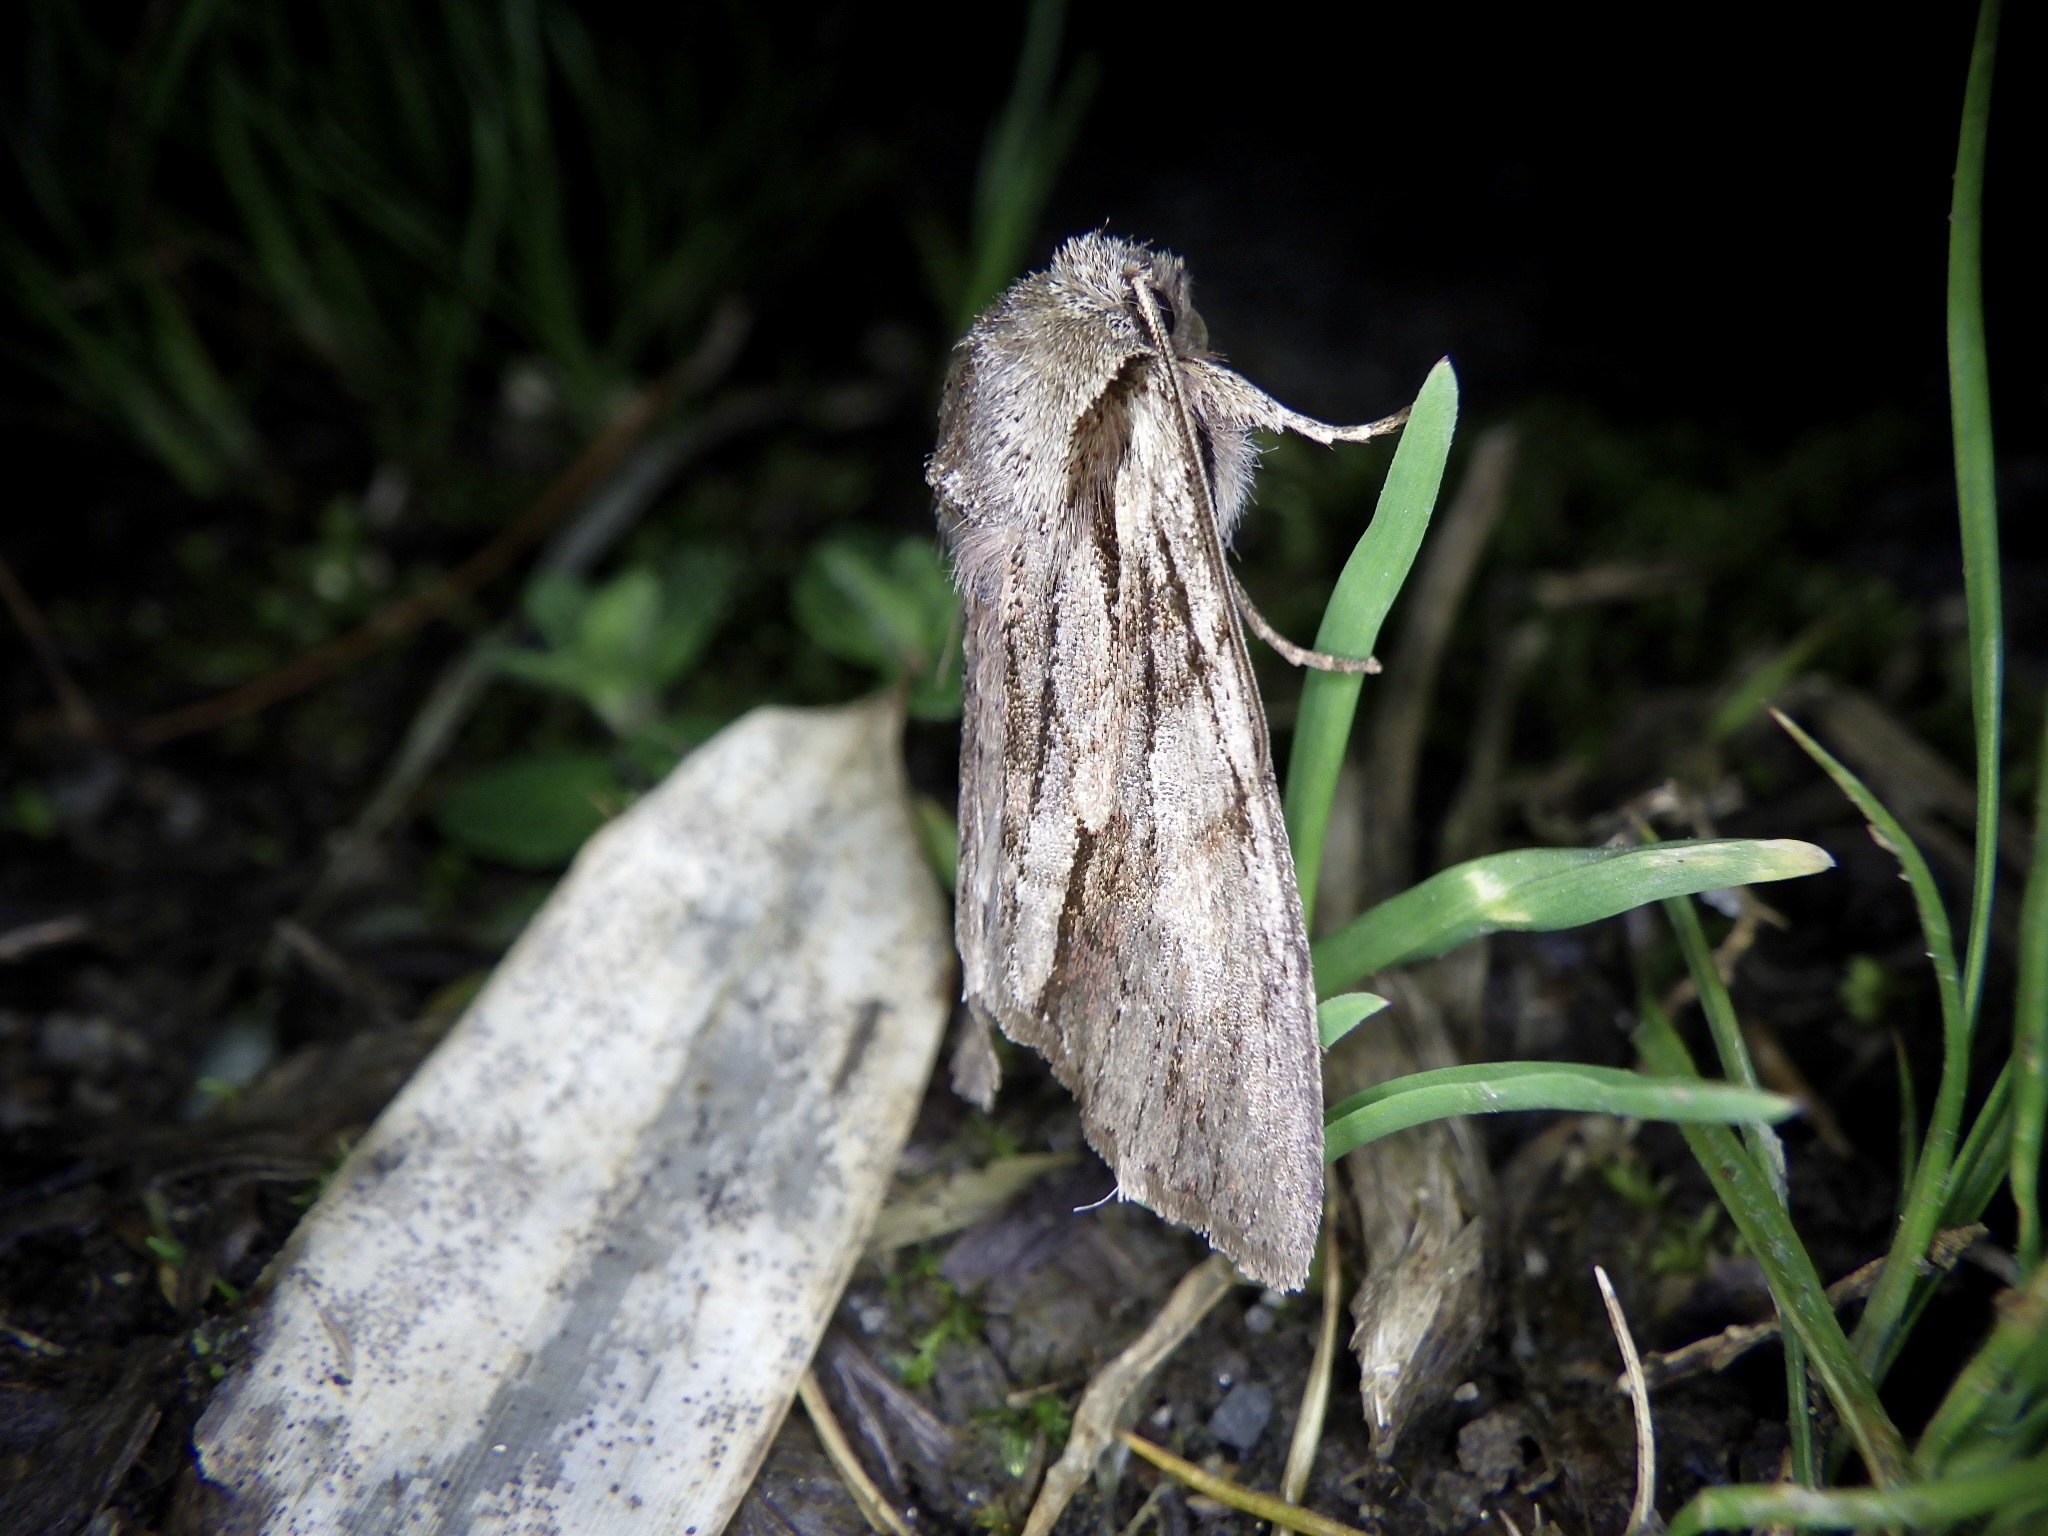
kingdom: Animalia
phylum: Arthropoda
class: Insecta
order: Lepidoptera
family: Noctuidae
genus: Egira
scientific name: Egira saxea
